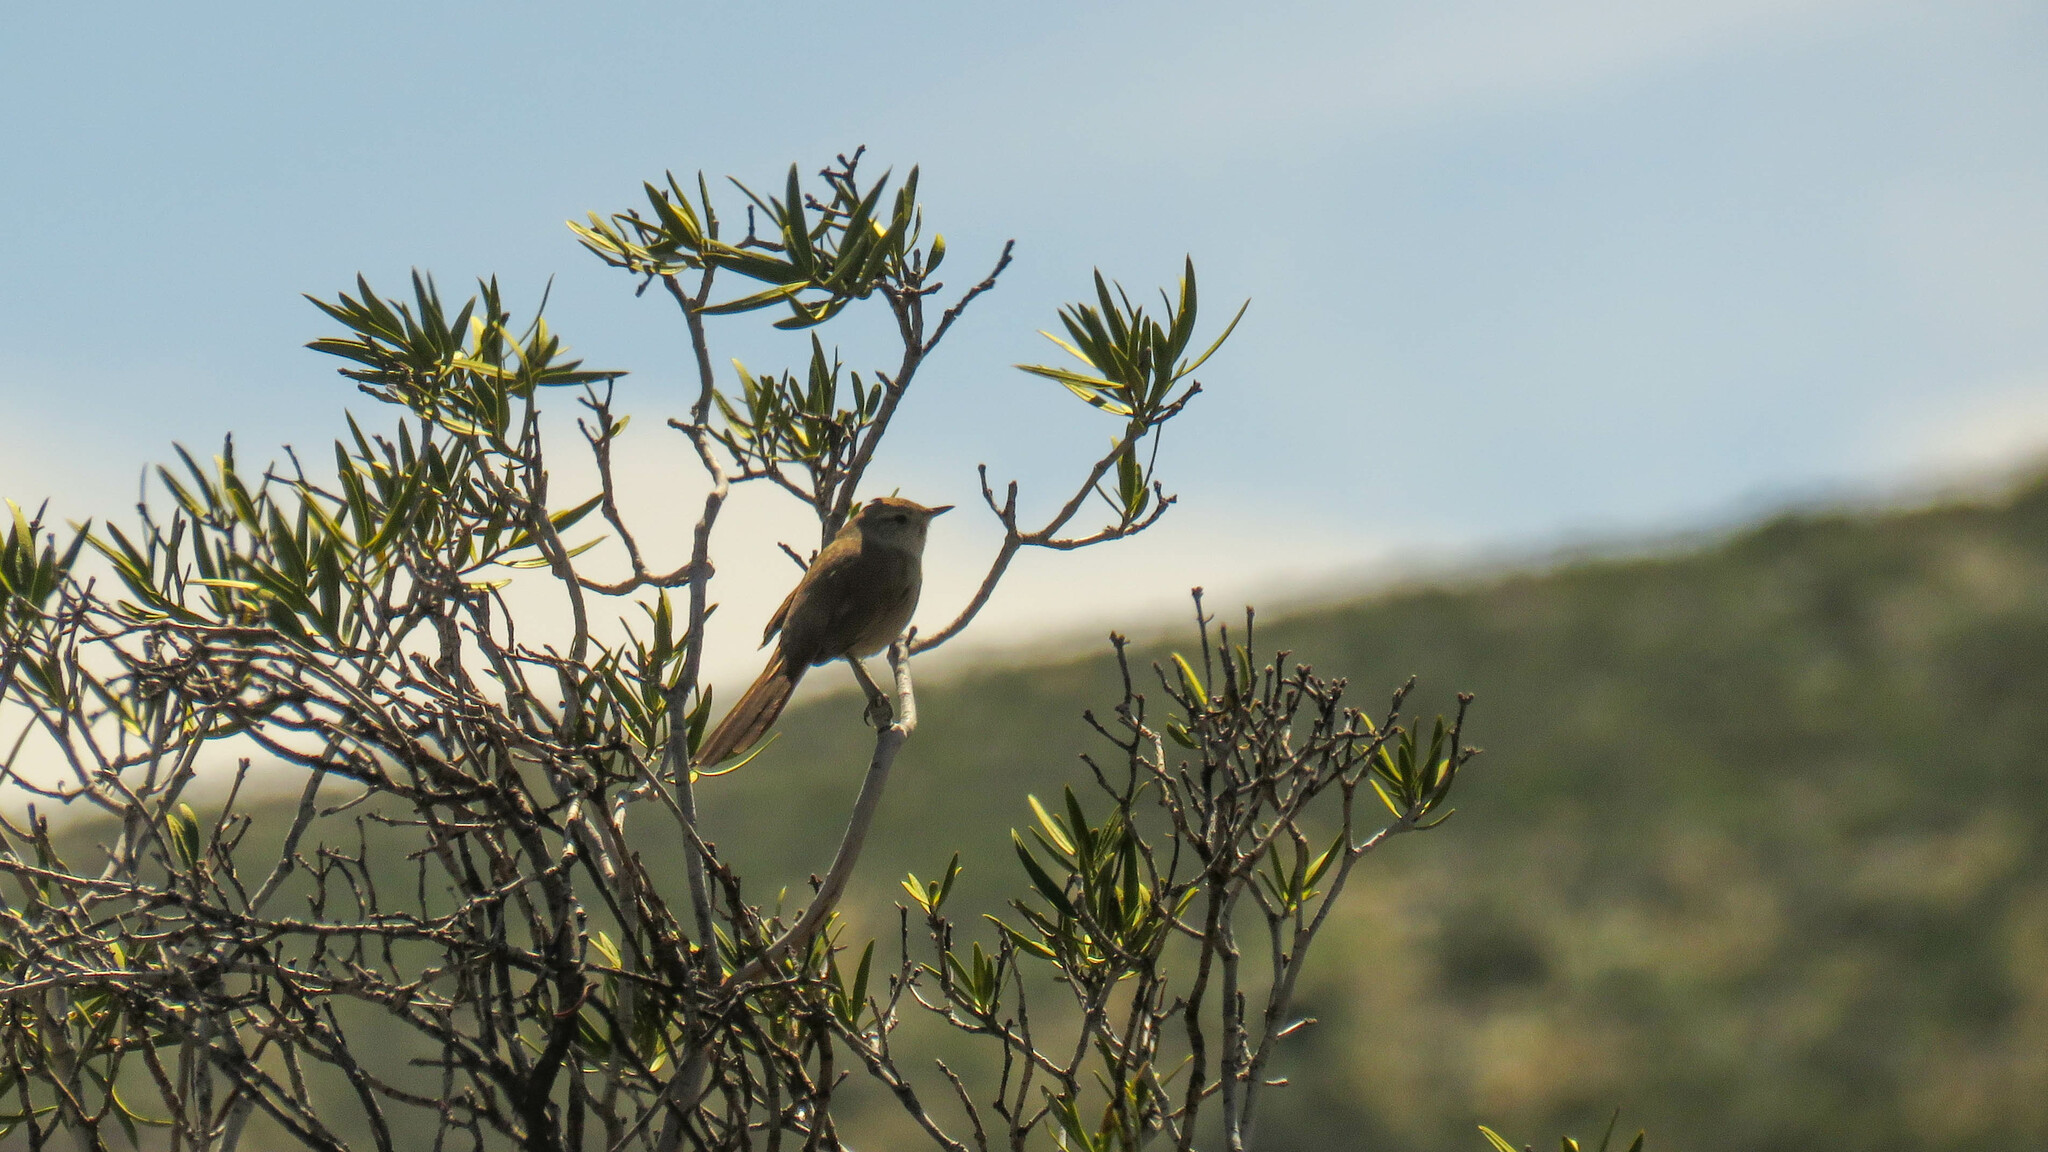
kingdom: Animalia
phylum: Chordata
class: Aves
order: Passeriformes
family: Furnariidae
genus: Asthenes
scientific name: Asthenes pyrrholeuca
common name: Sharp-billed canastero
